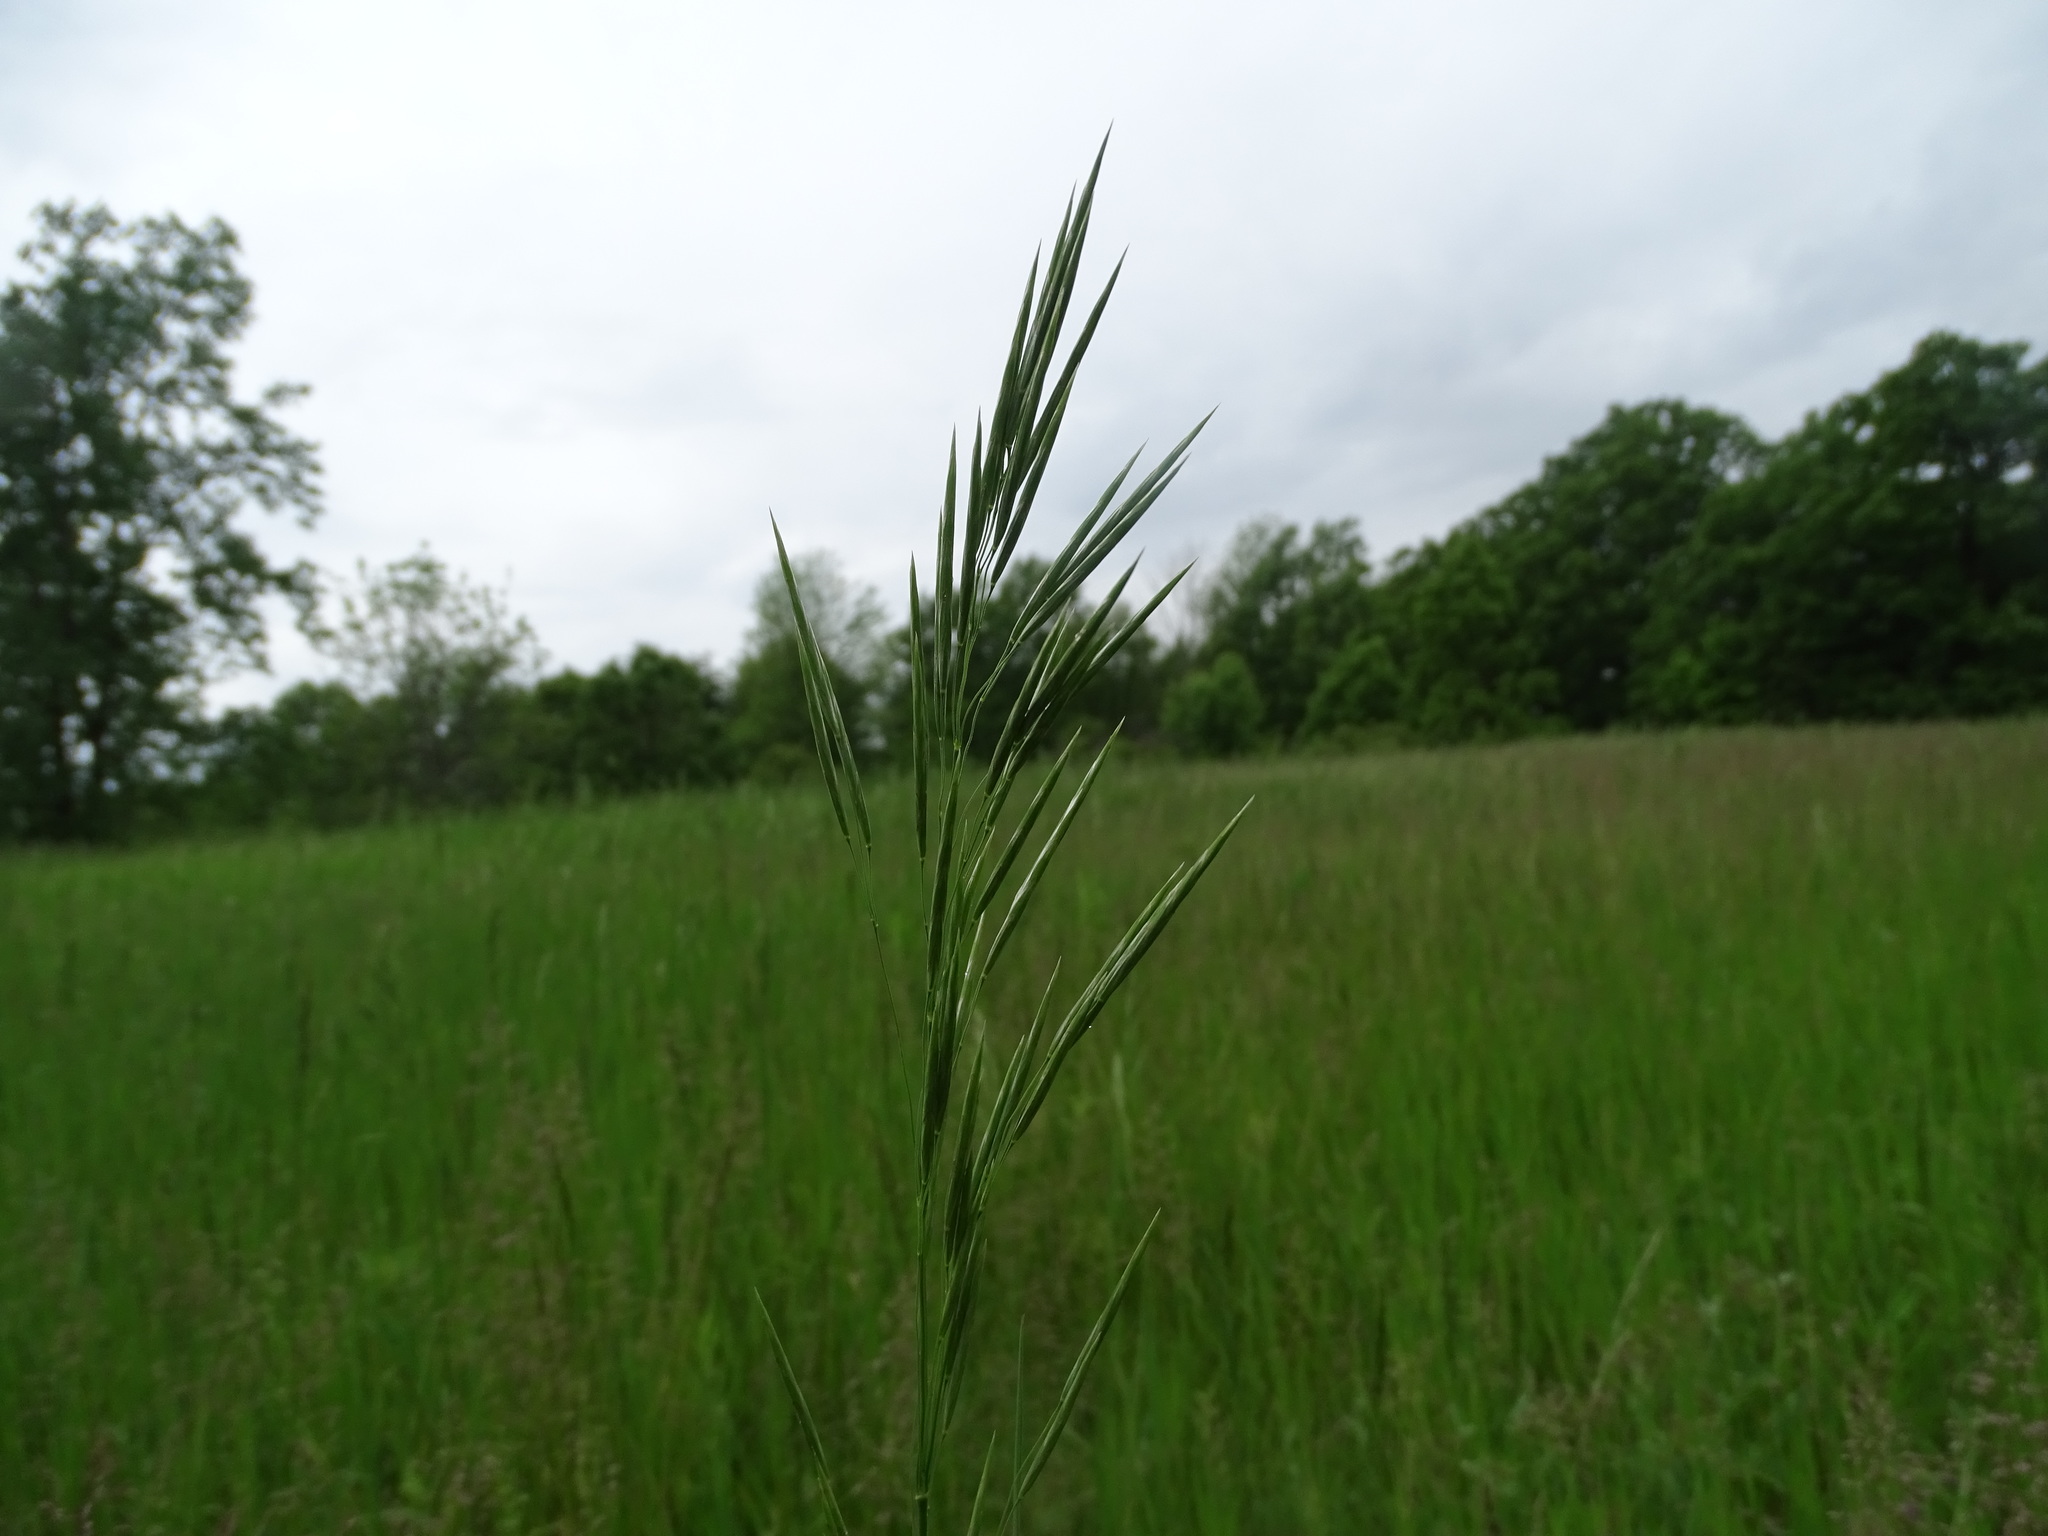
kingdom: Plantae
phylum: Tracheophyta
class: Liliopsida
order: Poales
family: Poaceae
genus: Bromus
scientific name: Bromus inermis
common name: Smooth brome
